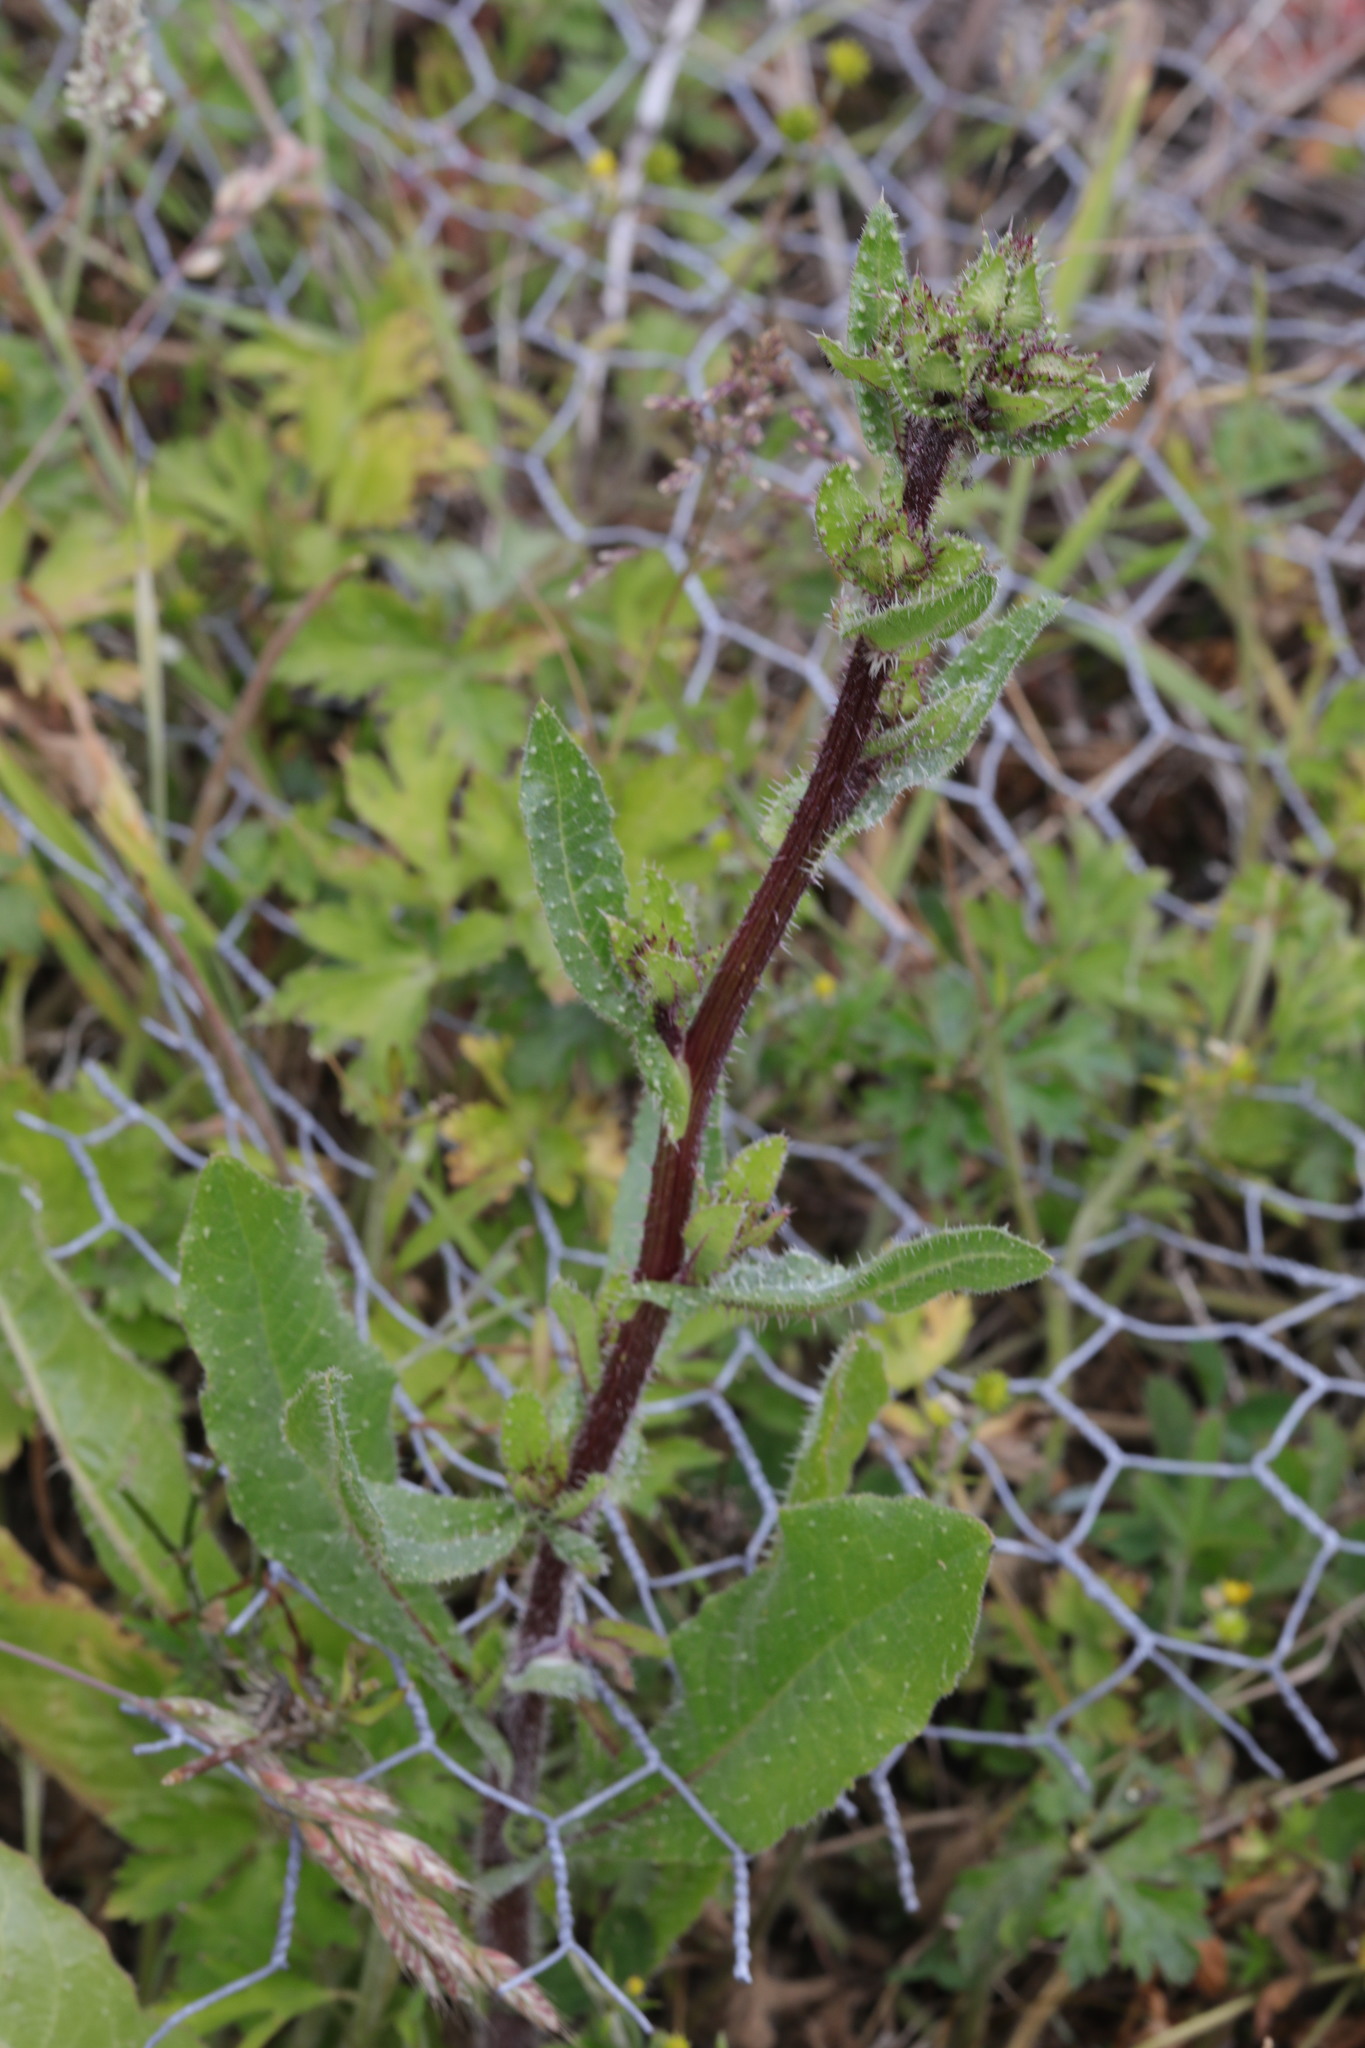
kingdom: Plantae
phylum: Tracheophyta
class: Magnoliopsida
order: Asterales
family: Asteraceae
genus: Helminthotheca
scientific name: Helminthotheca echioides
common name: Ox-tongue
